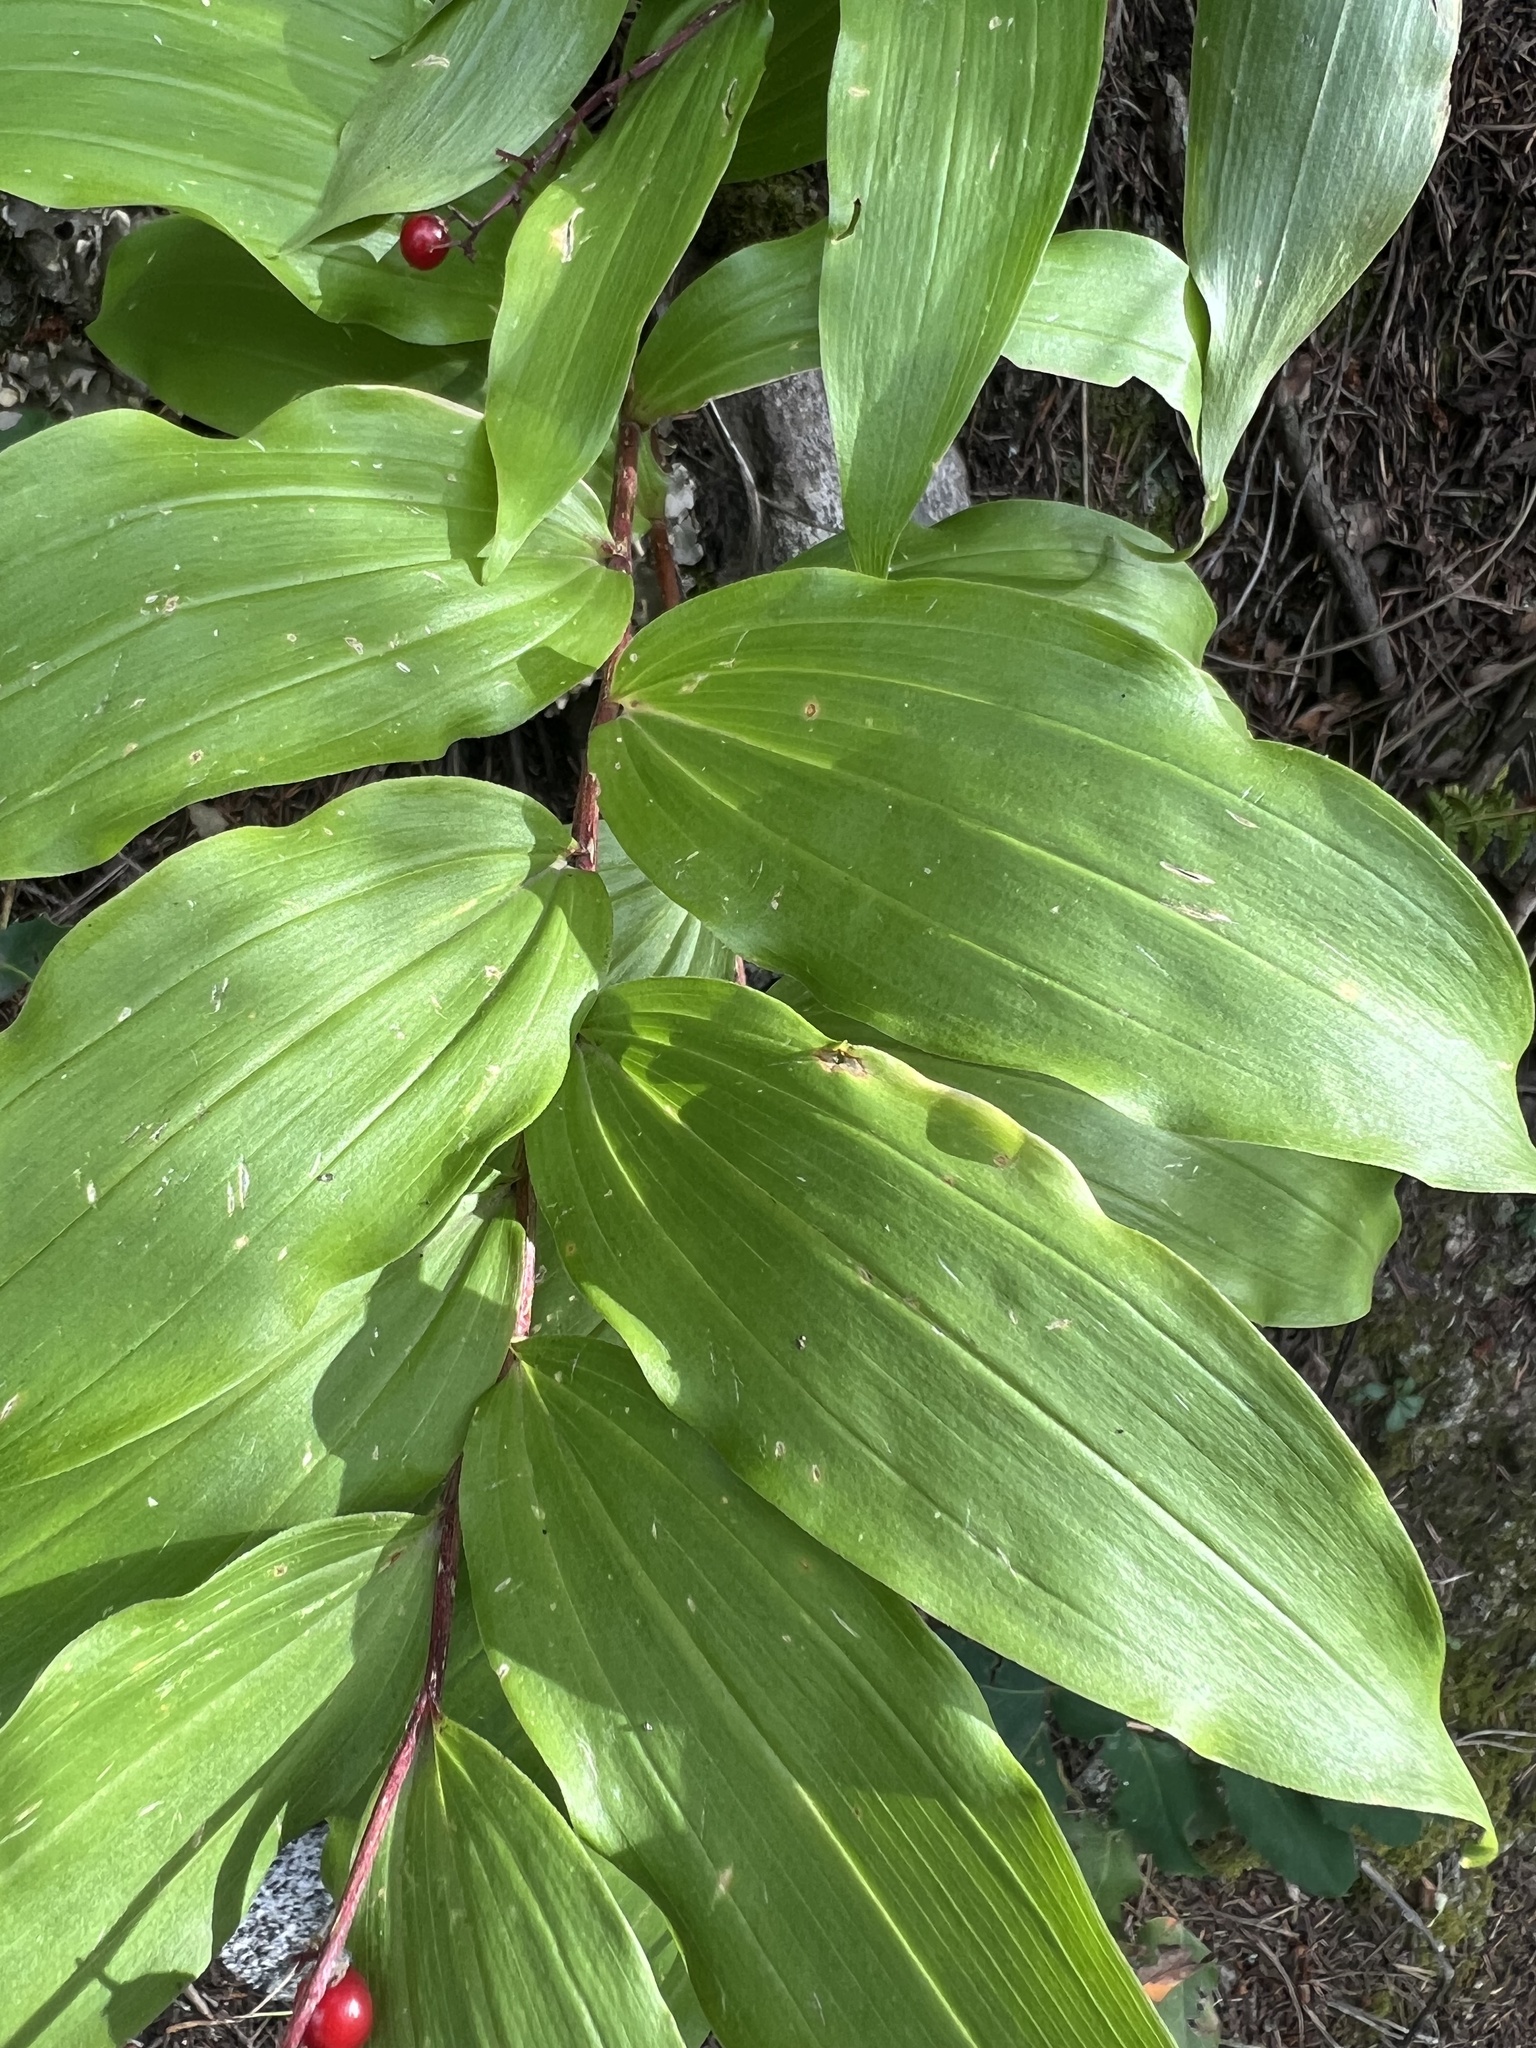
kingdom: Plantae
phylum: Tracheophyta
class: Liliopsida
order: Asparagales
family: Asparagaceae
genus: Maianthemum
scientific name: Maianthemum racemosum
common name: False spikenard
